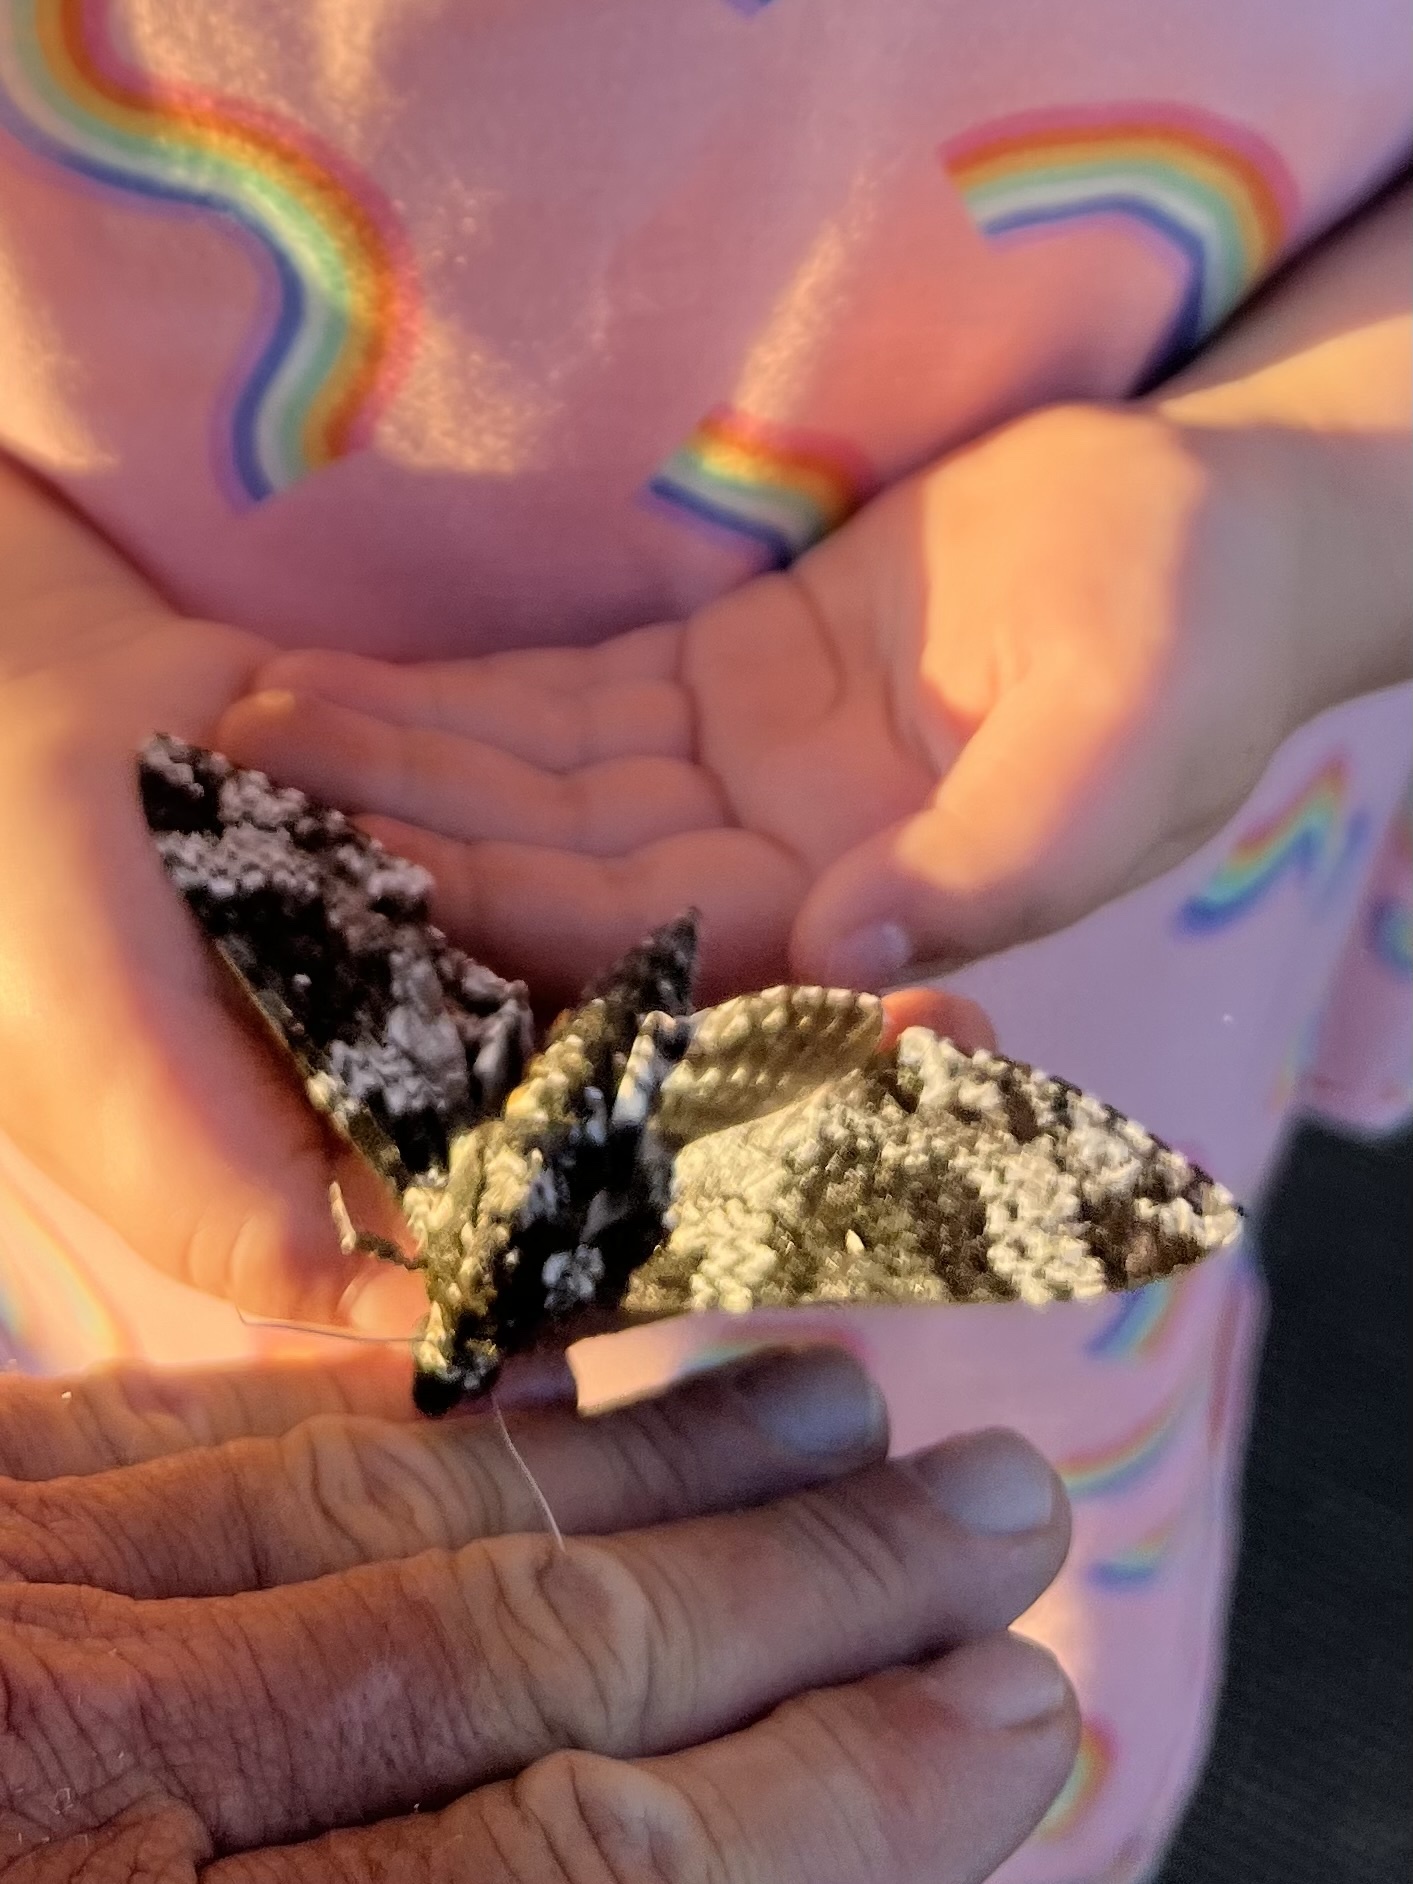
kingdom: Animalia
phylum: Arthropoda
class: Insecta
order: Lepidoptera
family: Sphingidae
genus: Manduca
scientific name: Manduca rustica
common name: Rustic sphinx
